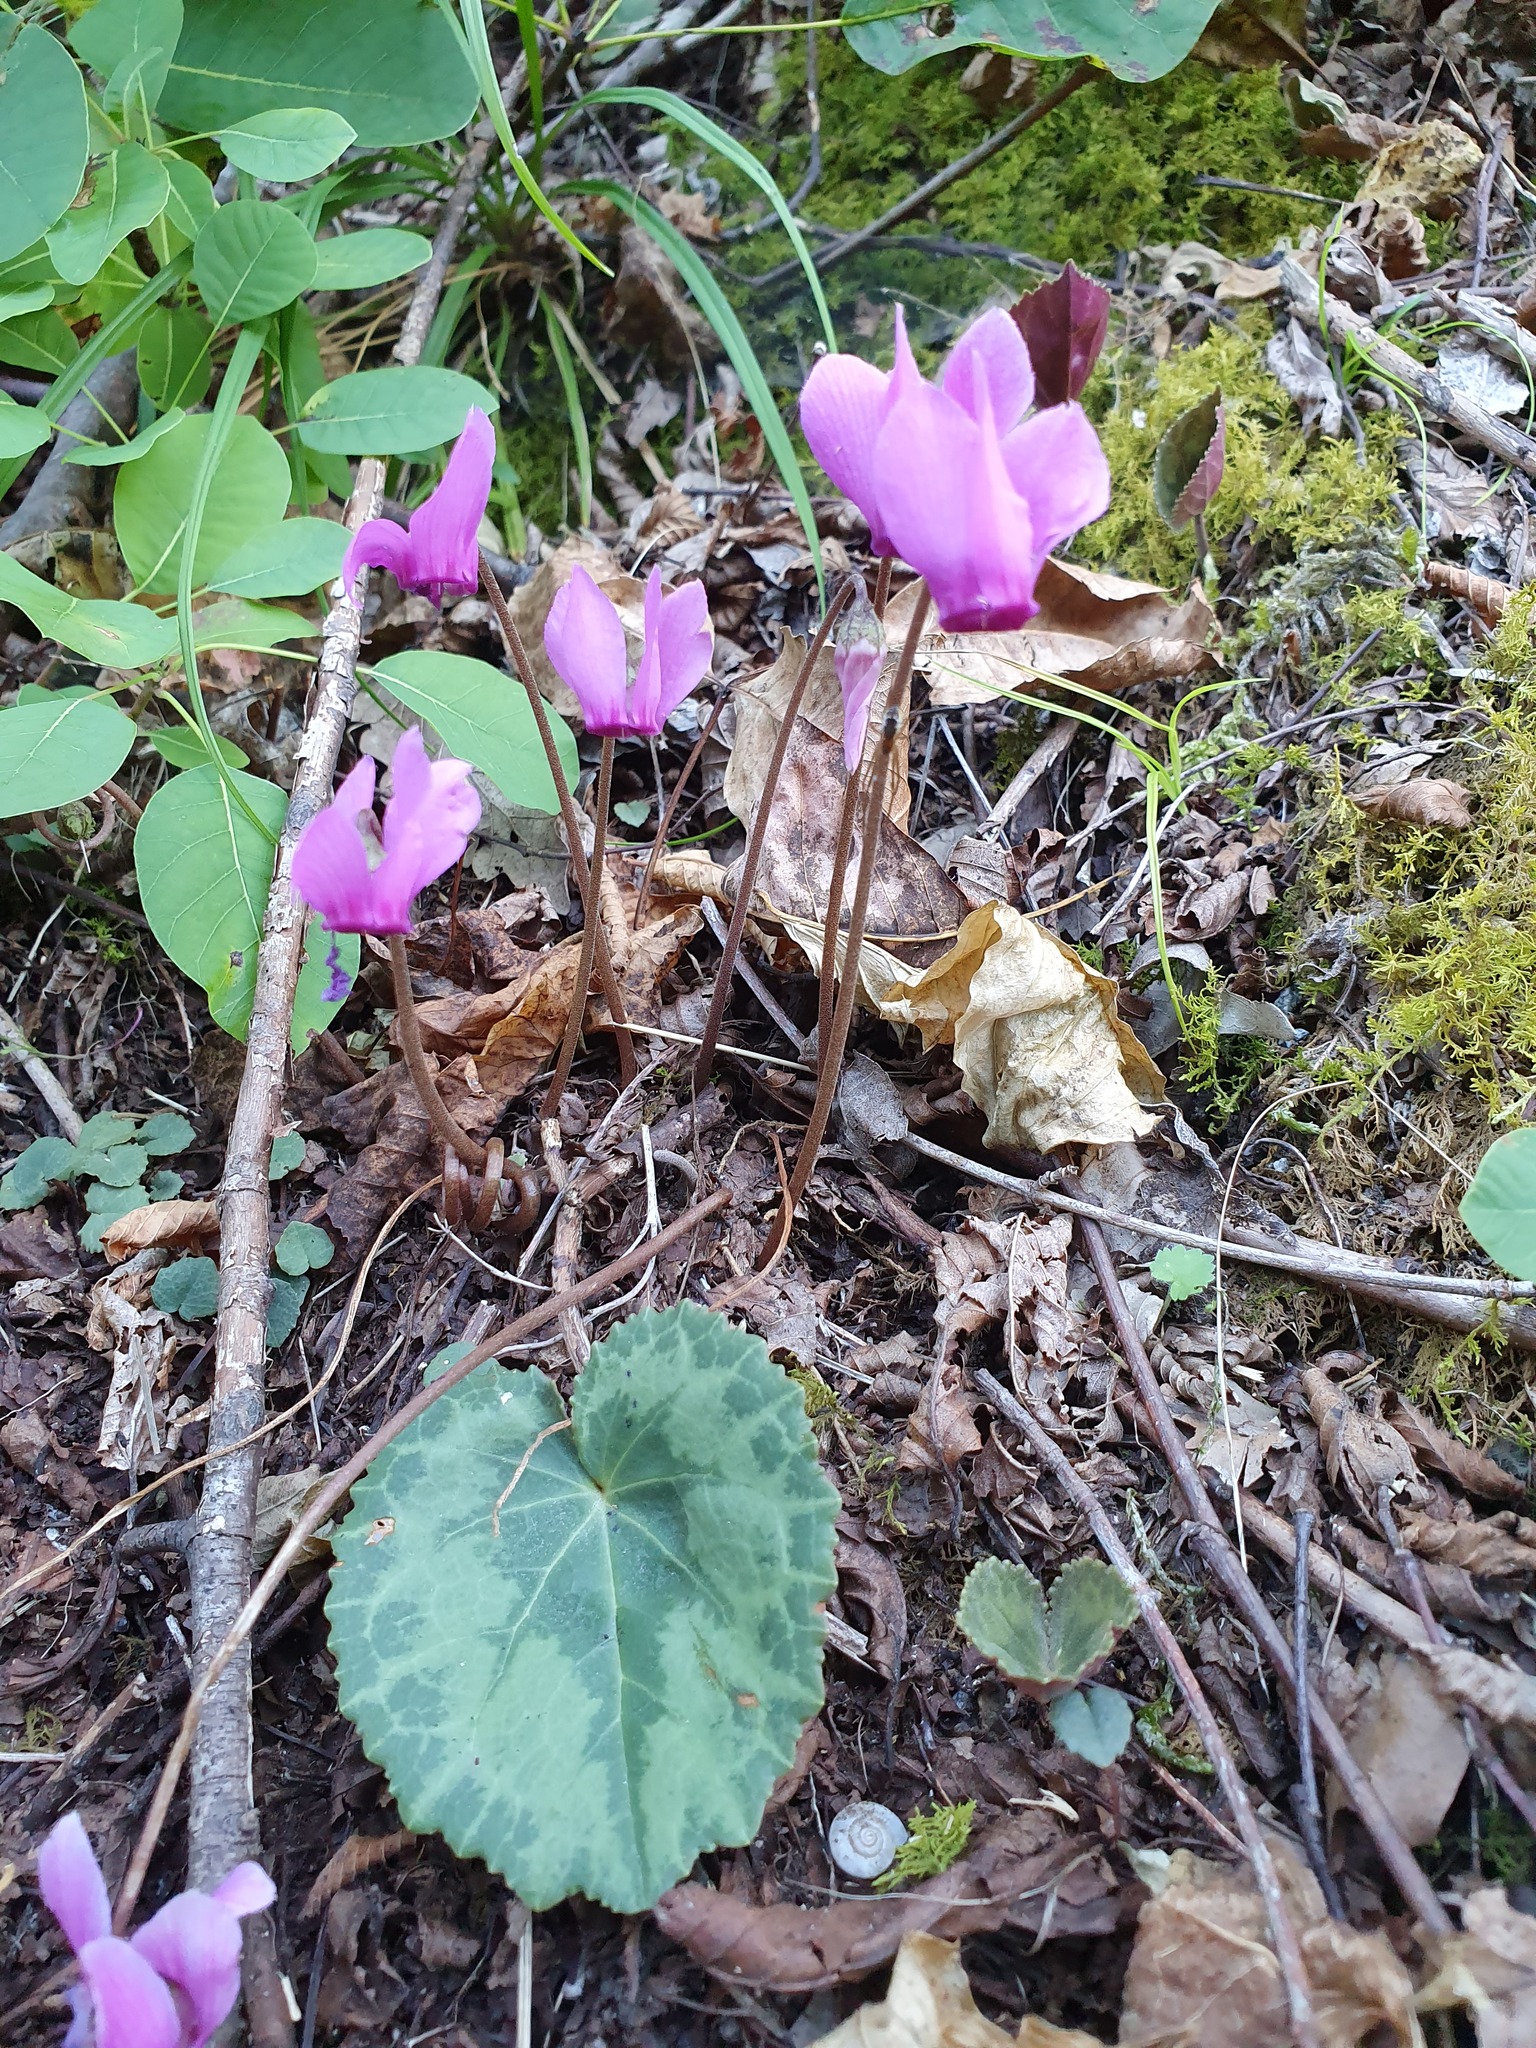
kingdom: Plantae
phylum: Tracheophyta
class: Magnoliopsida
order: Ericales
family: Primulaceae
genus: Cyclamen
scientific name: Cyclamen purpurascens
